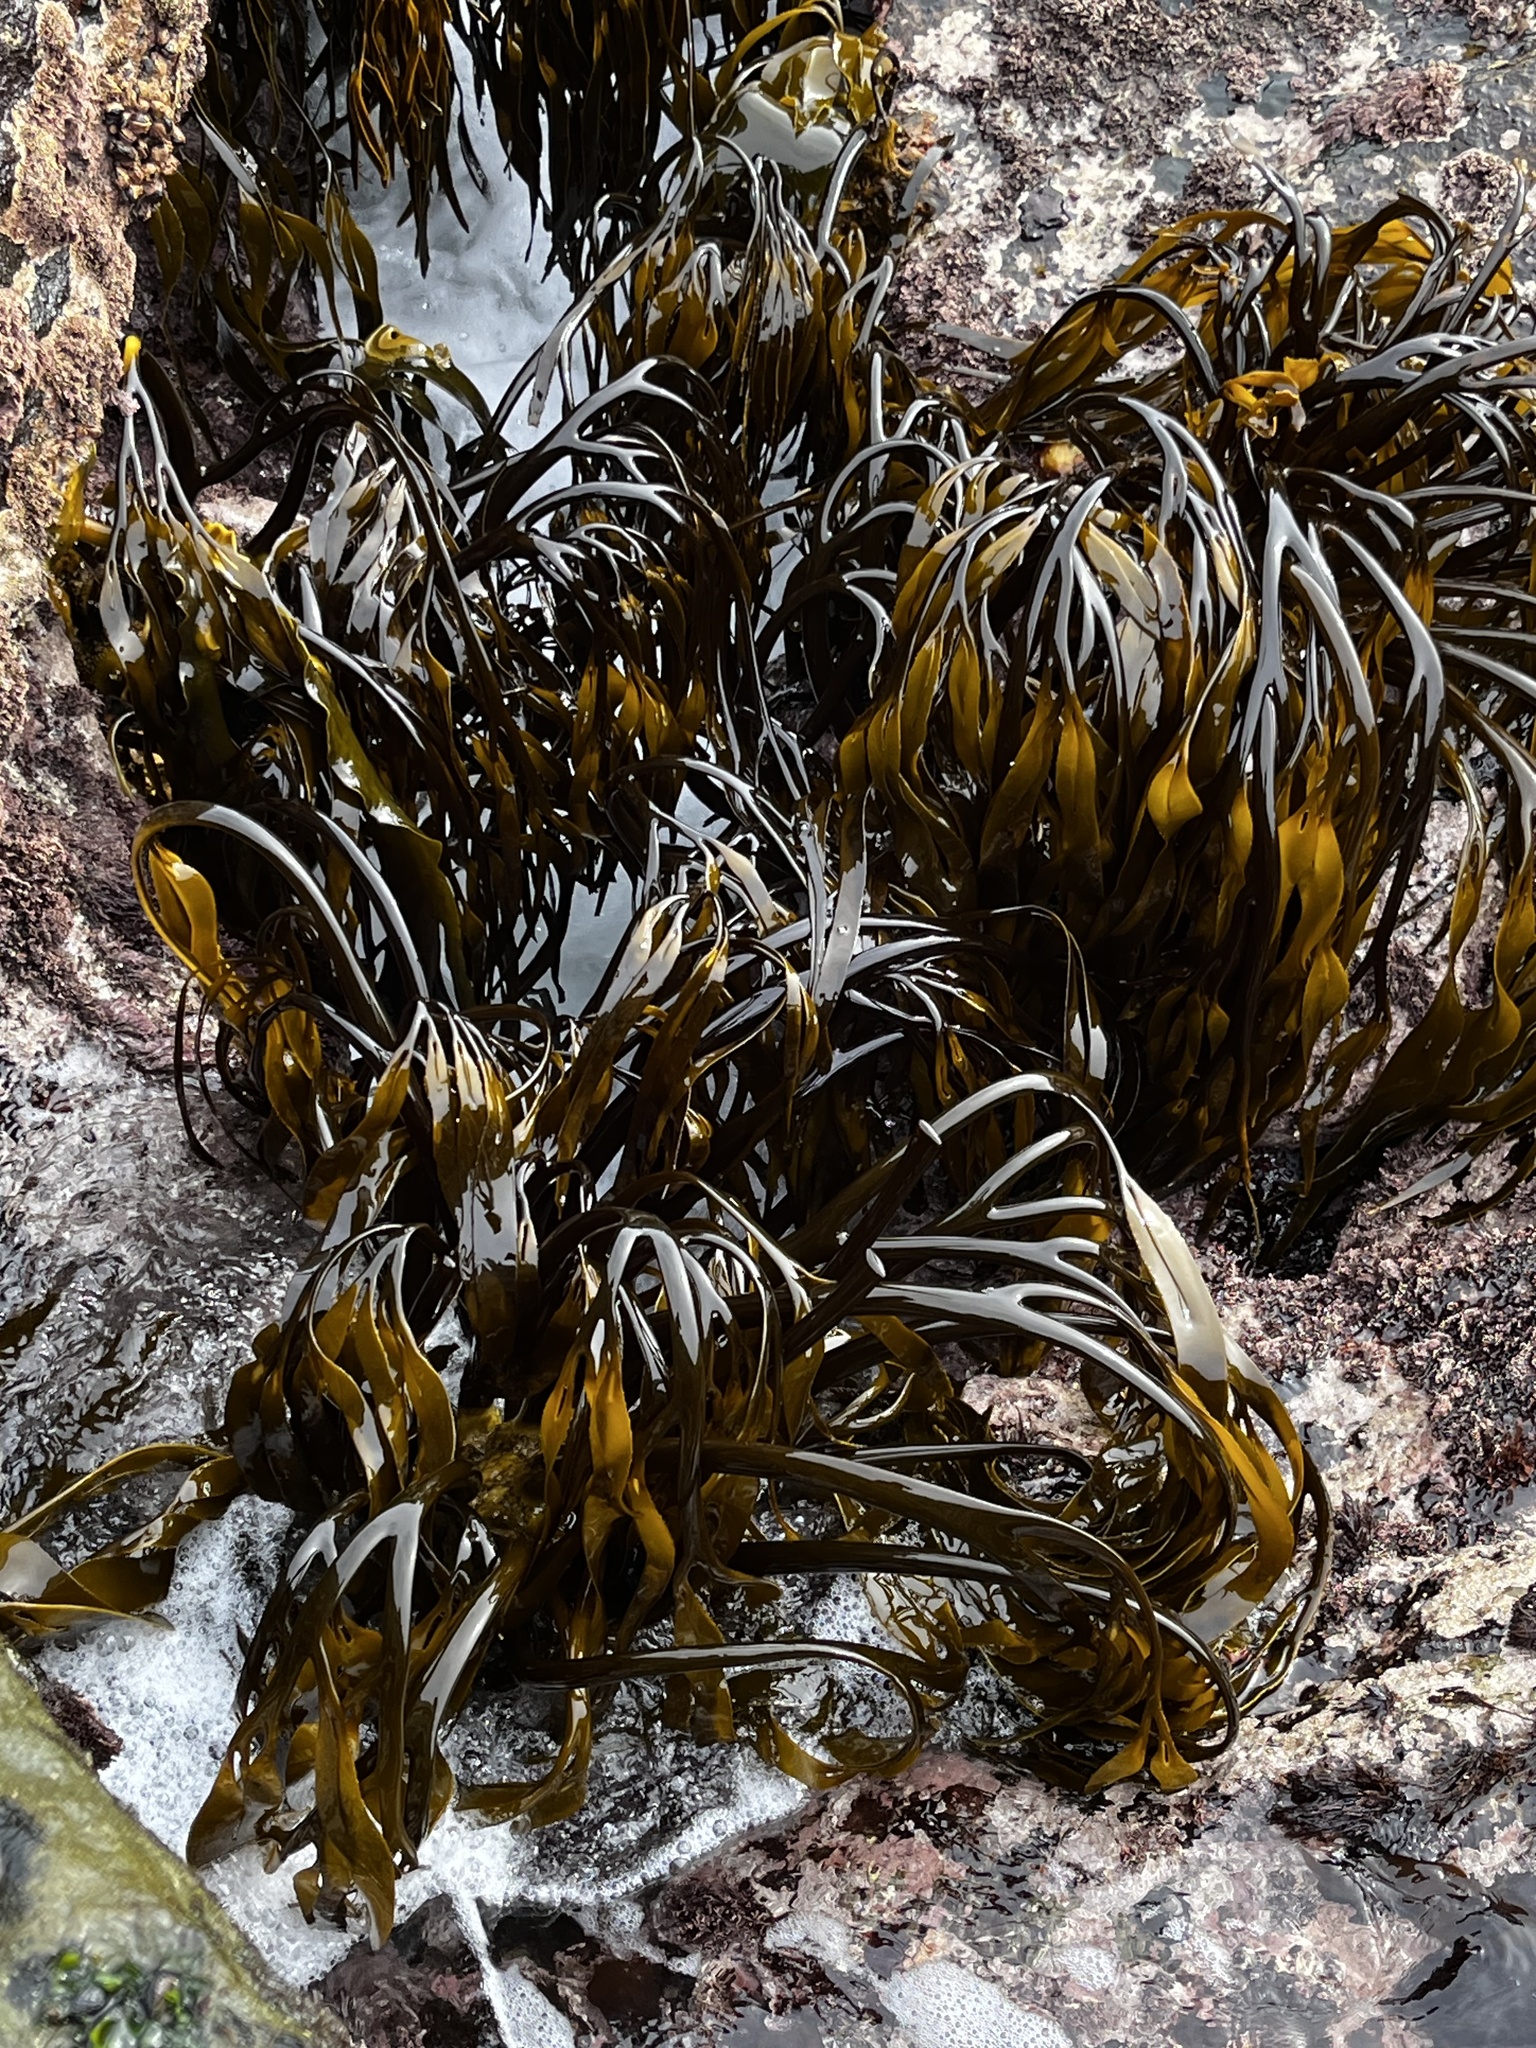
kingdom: Chromista
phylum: Ochrophyta
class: Phaeophyceae
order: Laminariales
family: Lessoniaceae
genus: Lessonia
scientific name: Lessonia spicata
